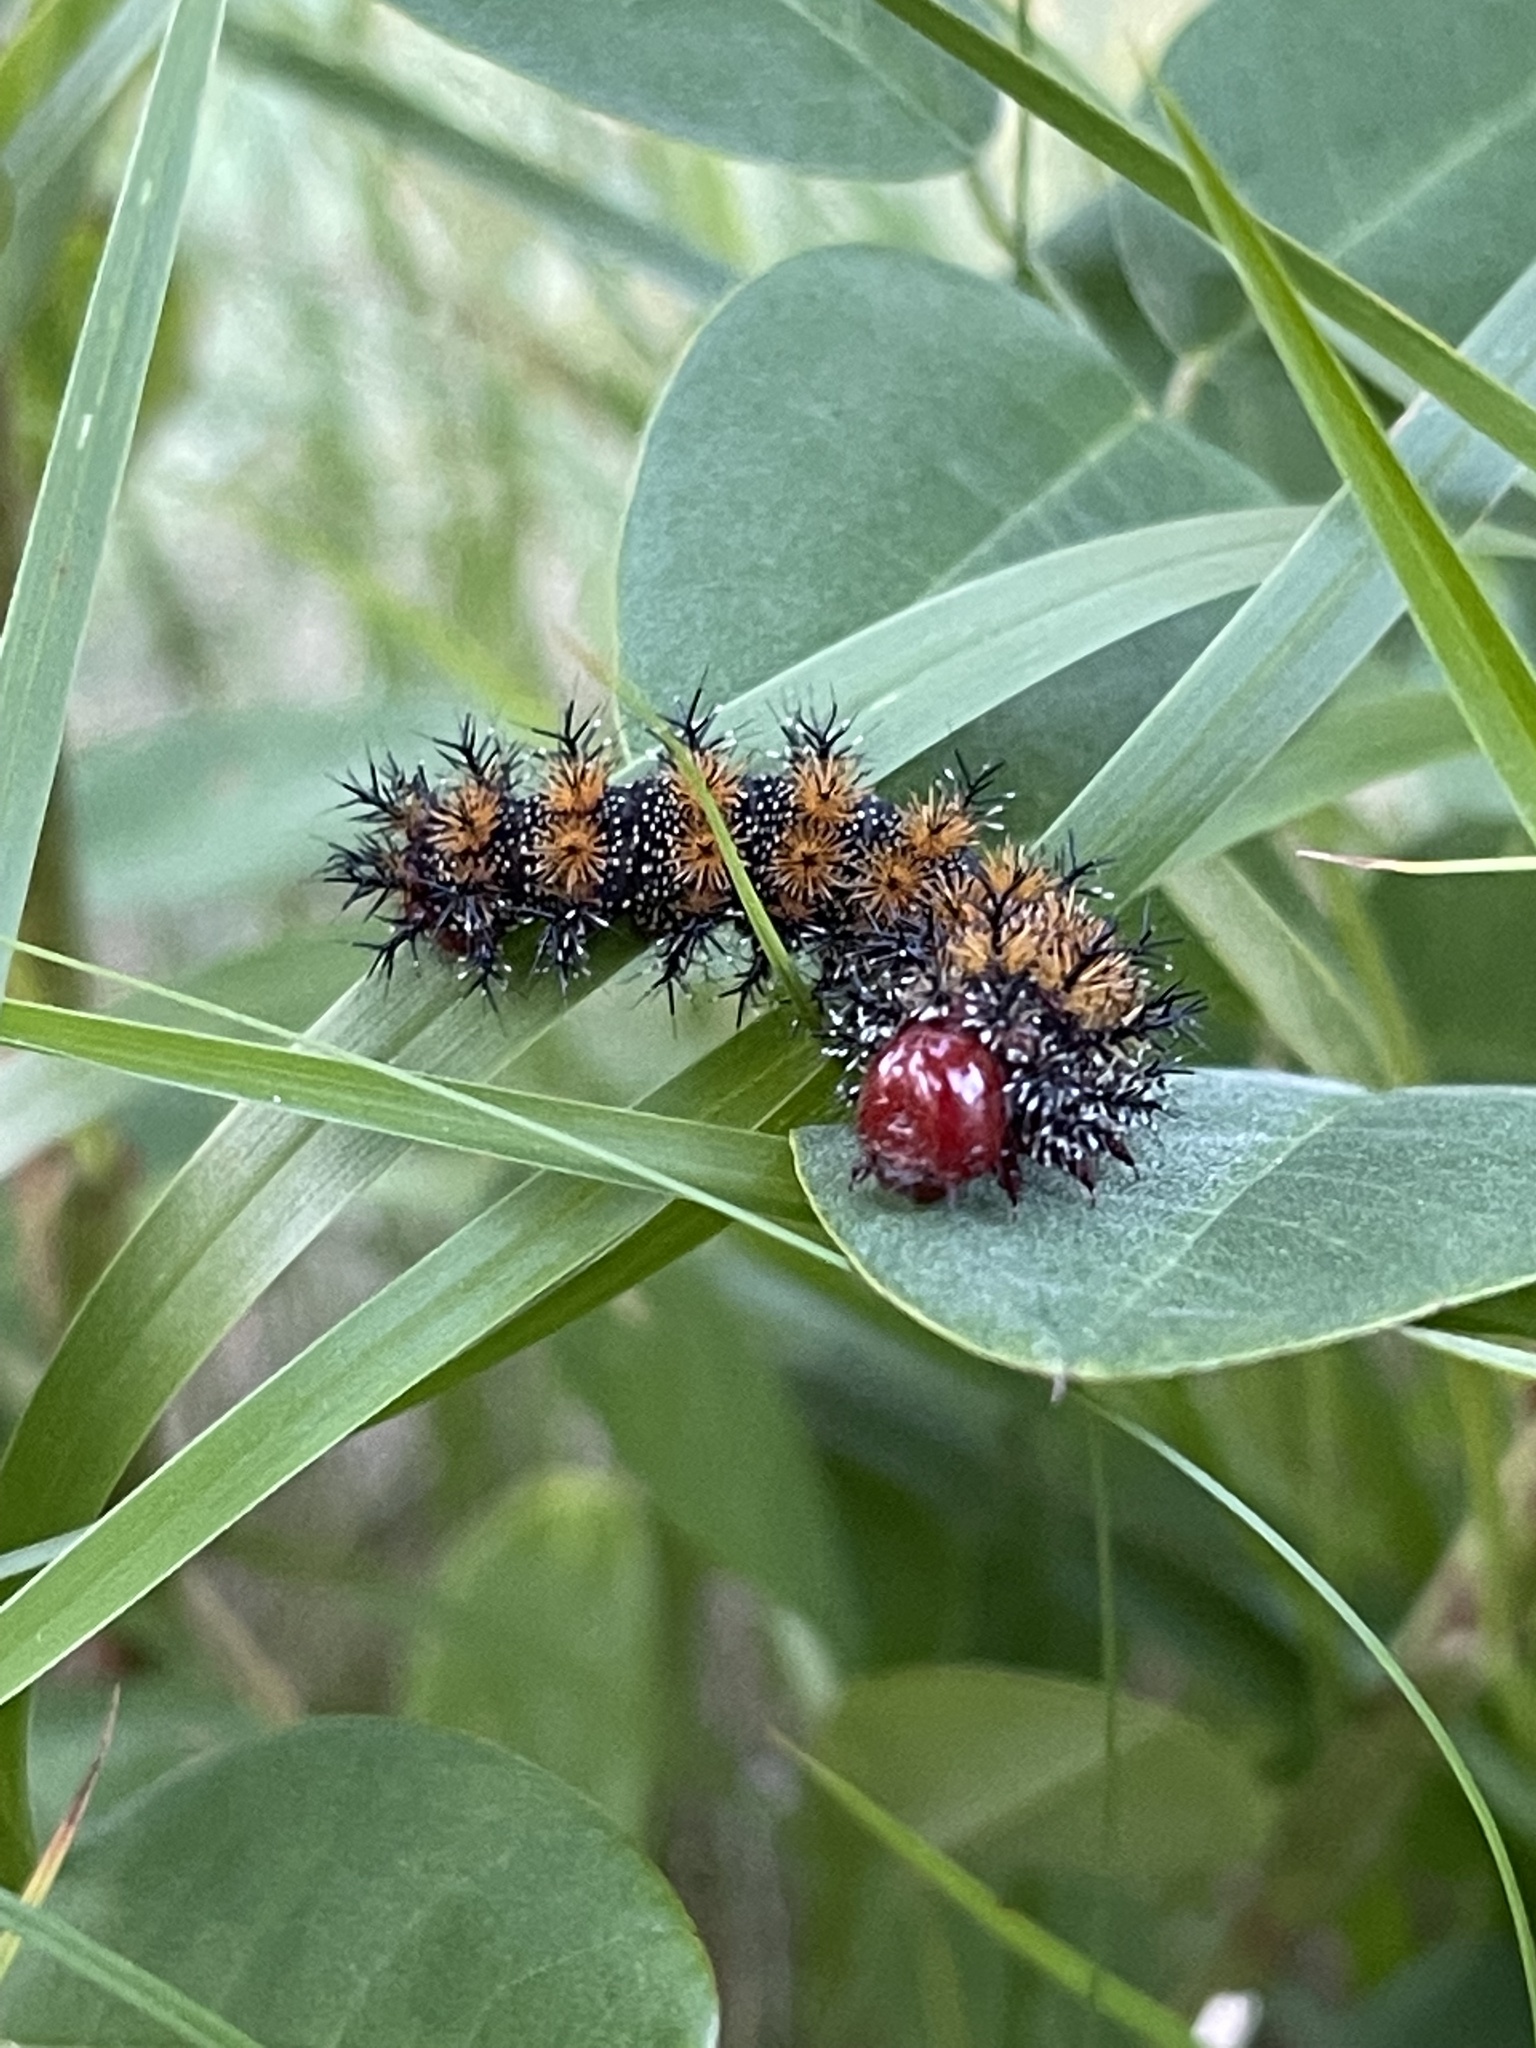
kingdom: Animalia
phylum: Arthropoda
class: Insecta
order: Lepidoptera
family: Saturniidae
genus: Hemileuca
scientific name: Hemileuca maia
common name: Eastern buckmoth
